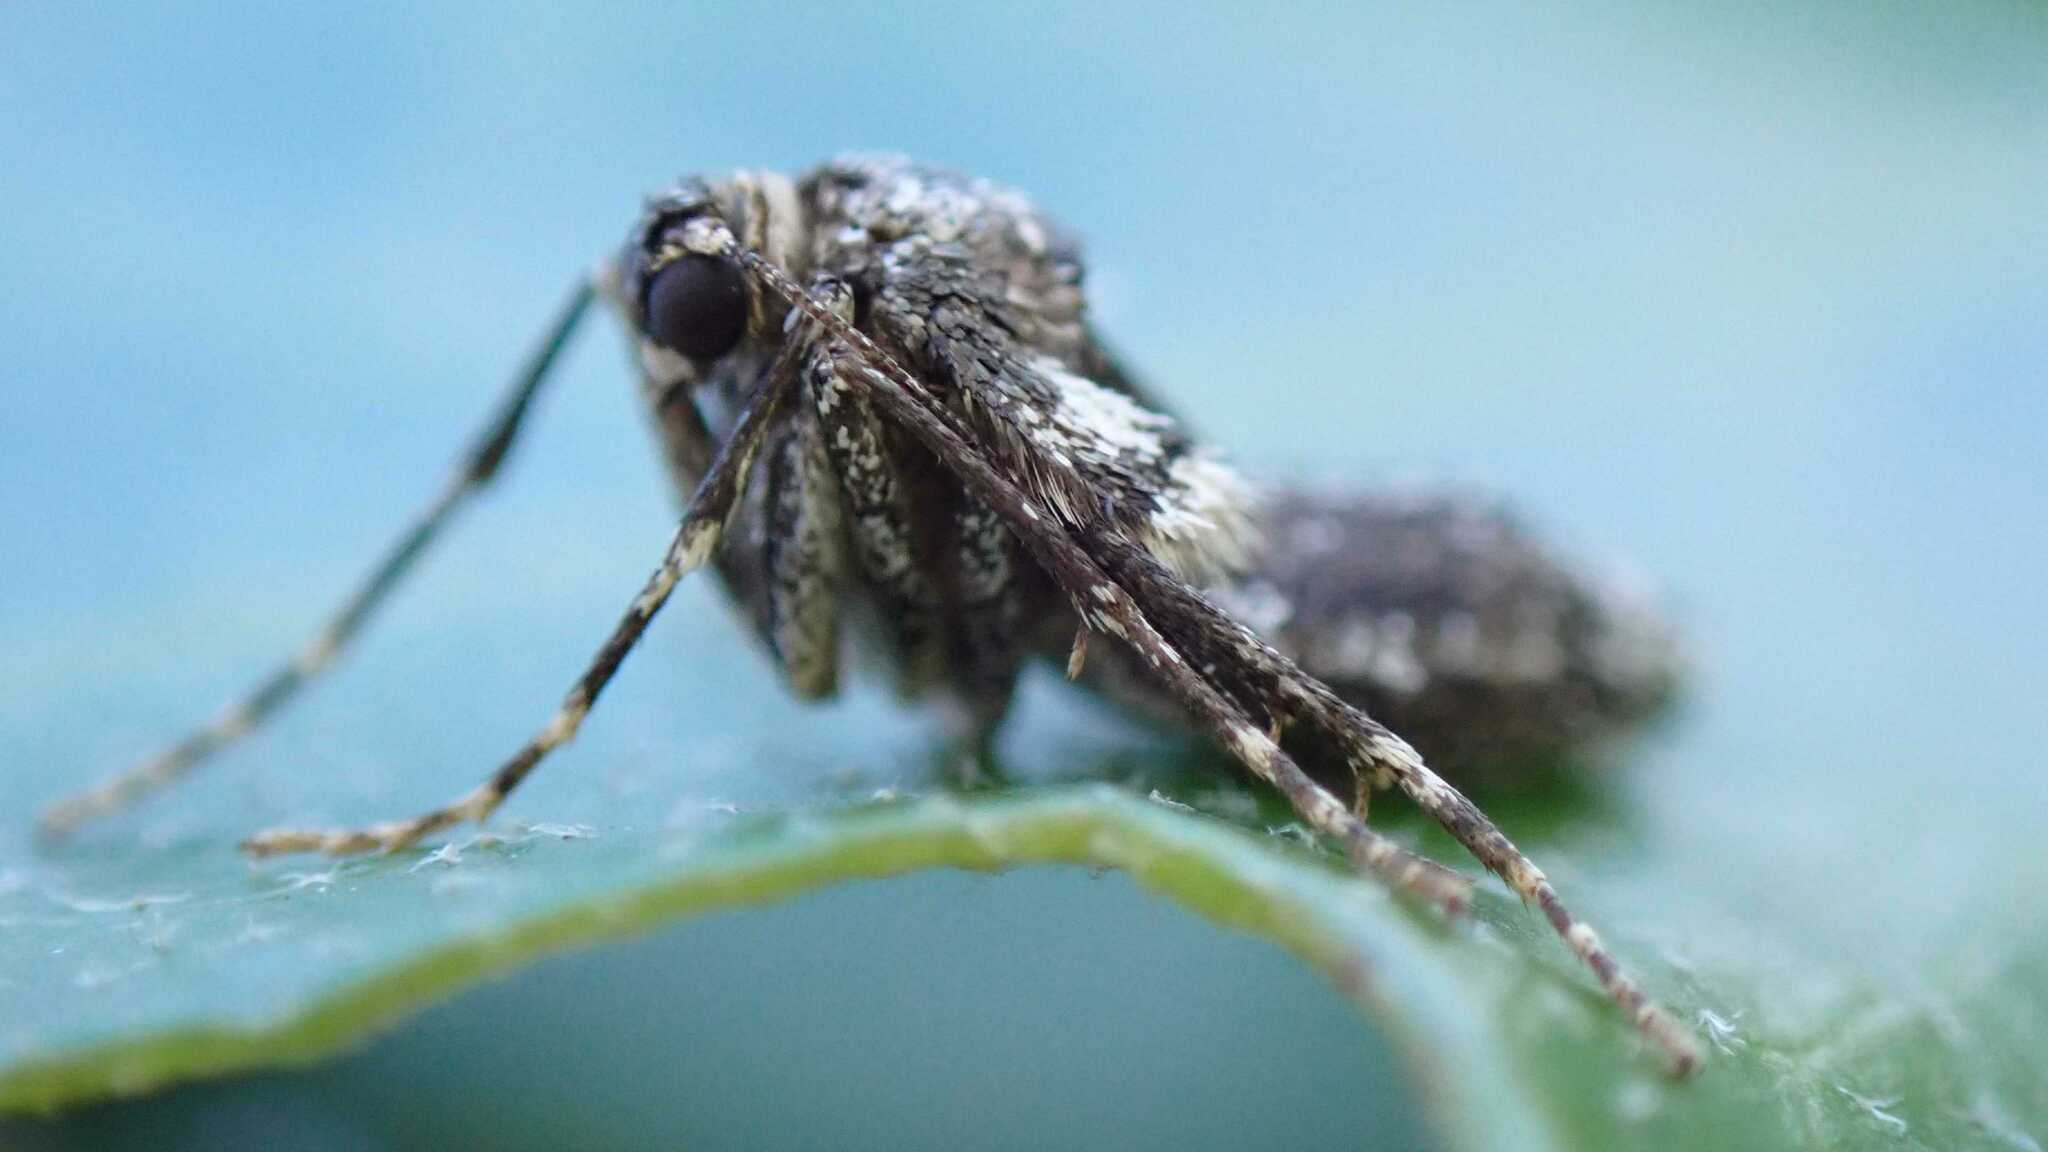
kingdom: Animalia
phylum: Arthropoda
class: Insecta
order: Lepidoptera
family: Geometridae
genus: Operophtera
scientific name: Operophtera brumata
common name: Winter moth
